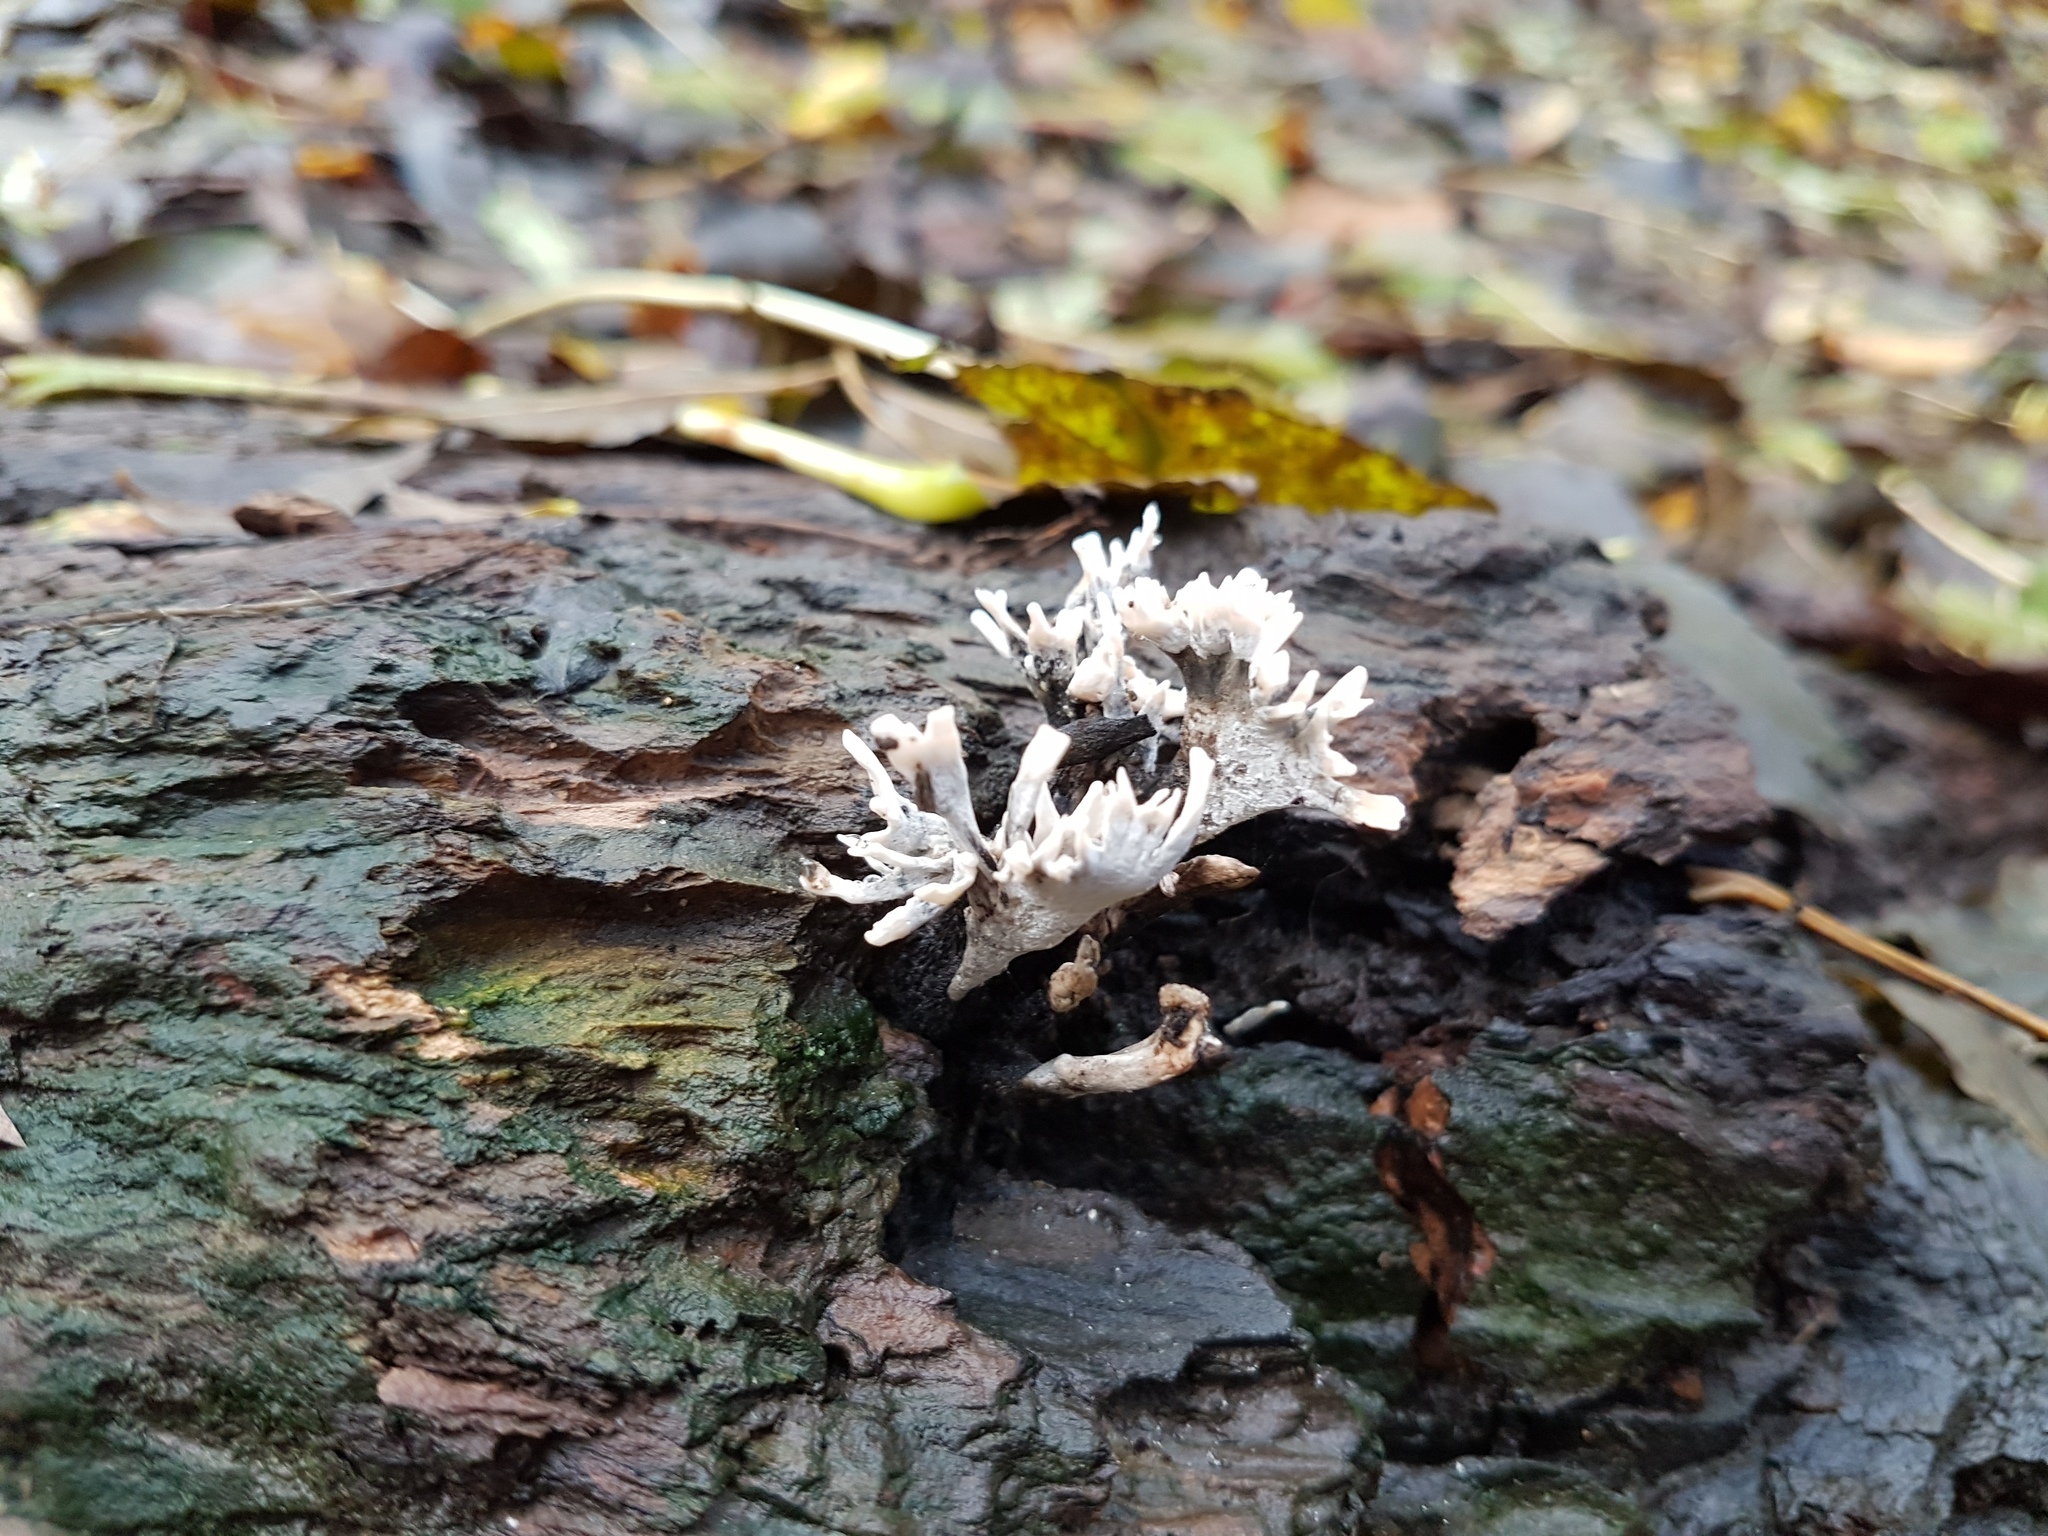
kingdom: Fungi
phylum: Ascomycota
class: Sordariomycetes
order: Xylariales
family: Xylariaceae
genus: Xylaria
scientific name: Xylaria hypoxylon
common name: Candle-snuff fungus
